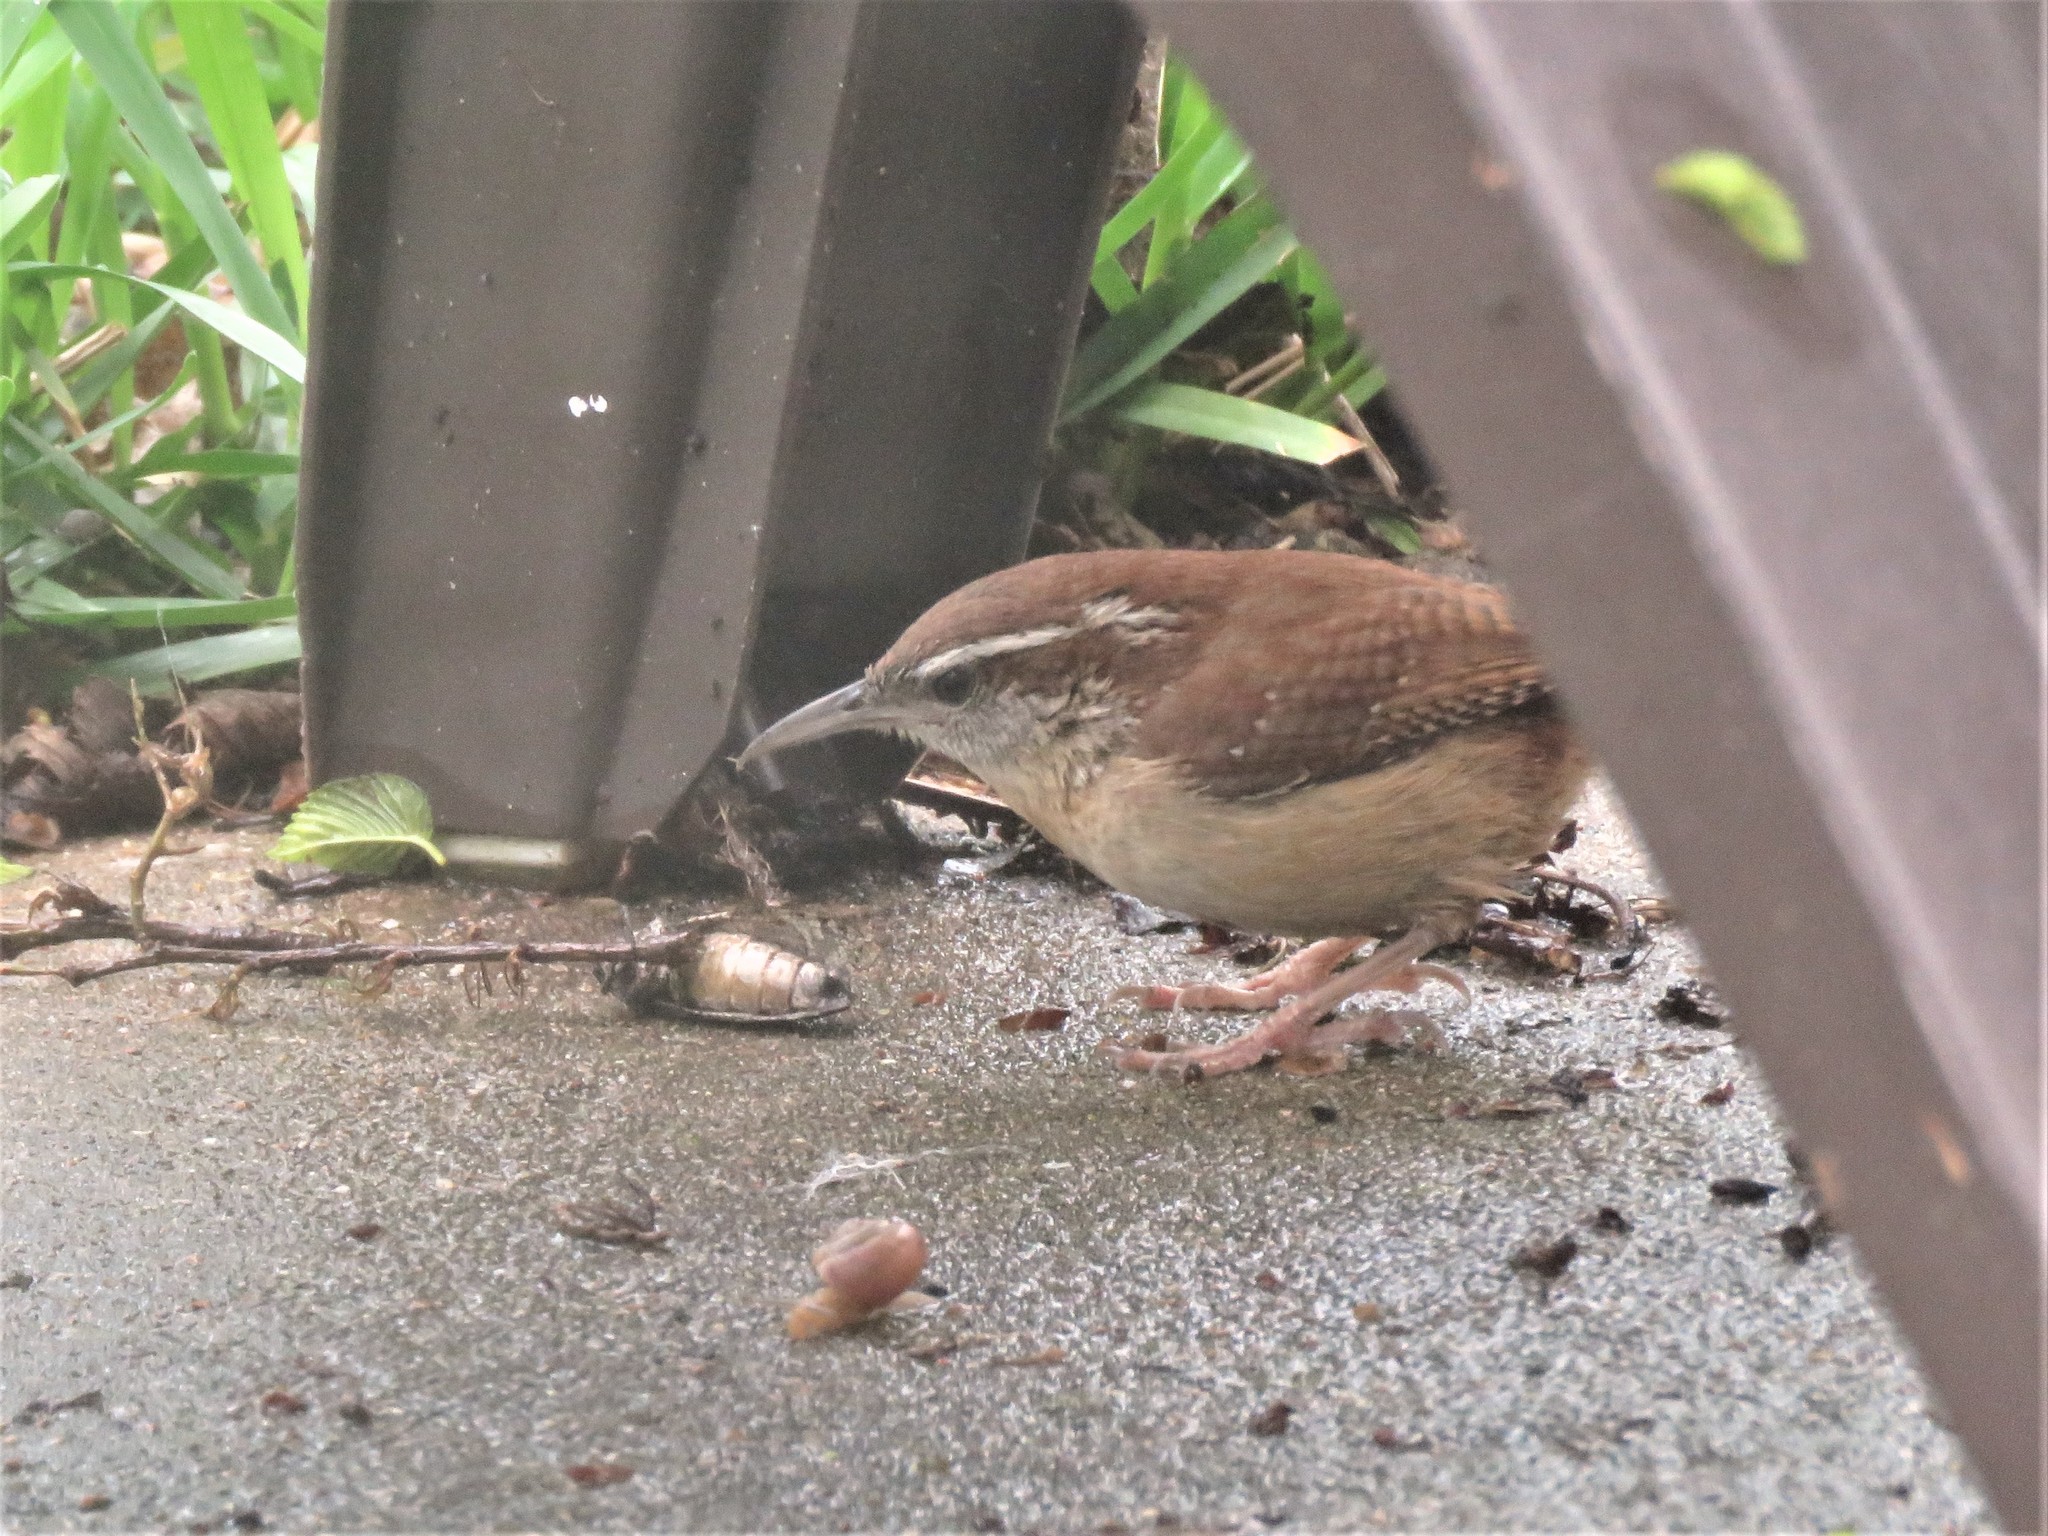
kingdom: Animalia
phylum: Chordata
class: Aves
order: Passeriformes
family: Troglodytidae
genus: Thryothorus
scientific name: Thryothorus ludovicianus
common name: Carolina wren
